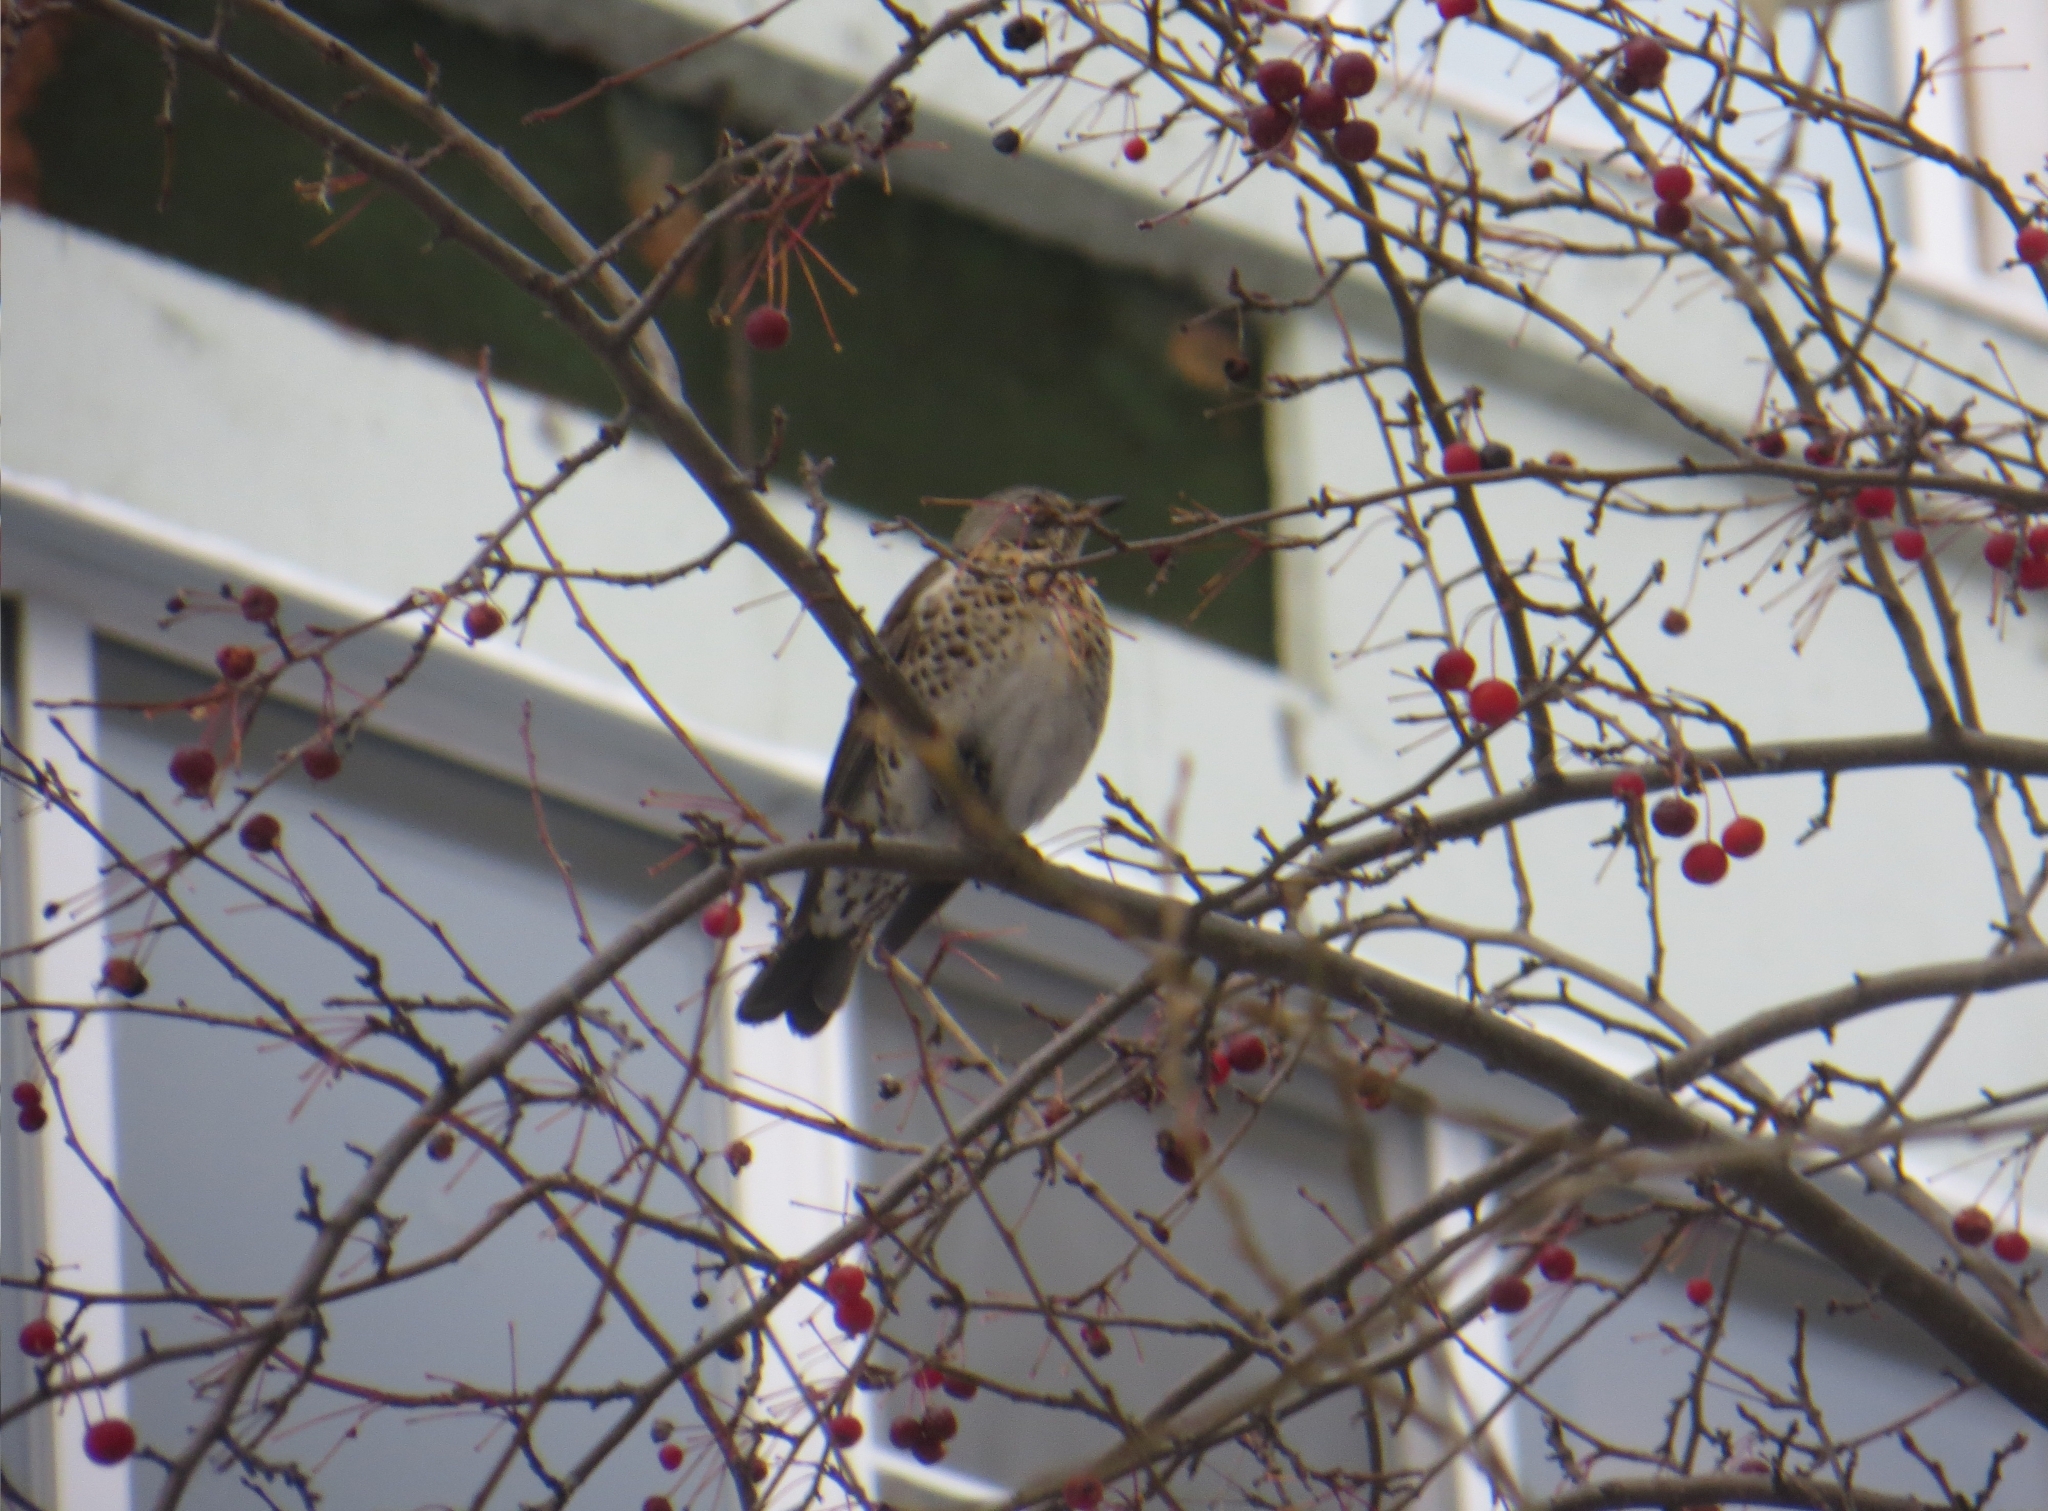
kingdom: Animalia
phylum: Chordata
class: Aves
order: Passeriformes
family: Turdidae
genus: Turdus
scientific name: Turdus pilaris
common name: Fieldfare
